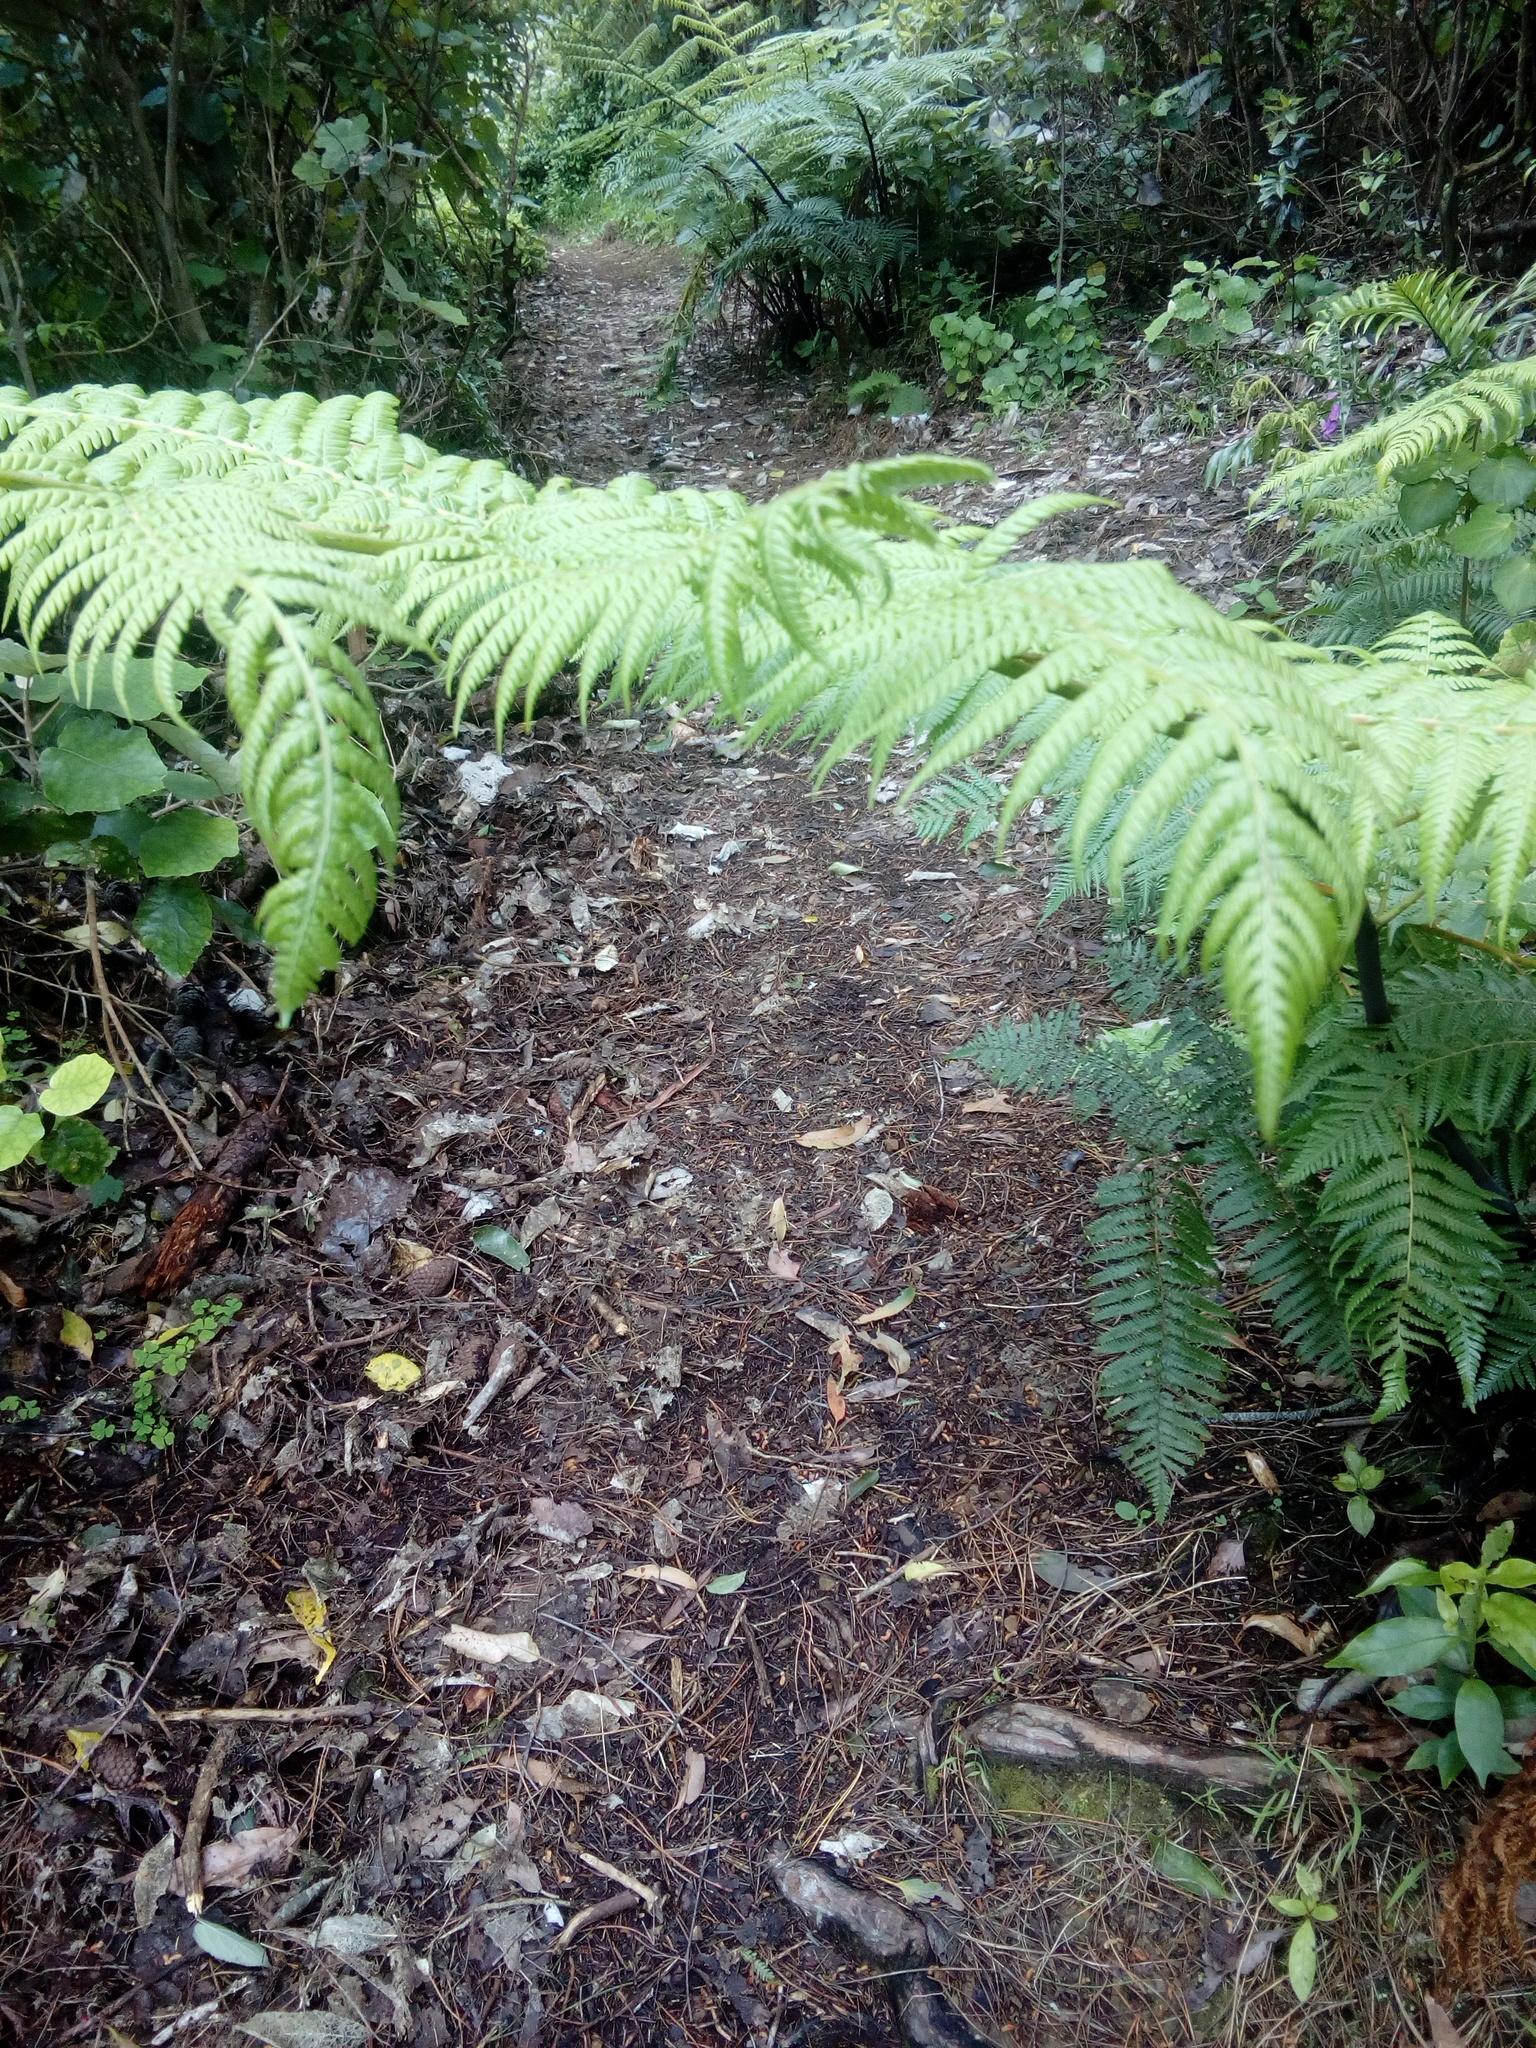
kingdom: Plantae
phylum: Tracheophyta
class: Polypodiopsida
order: Cyatheales
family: Cyatheaceae
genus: Sphaeropteris
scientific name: Sphaeropteris medullaris
